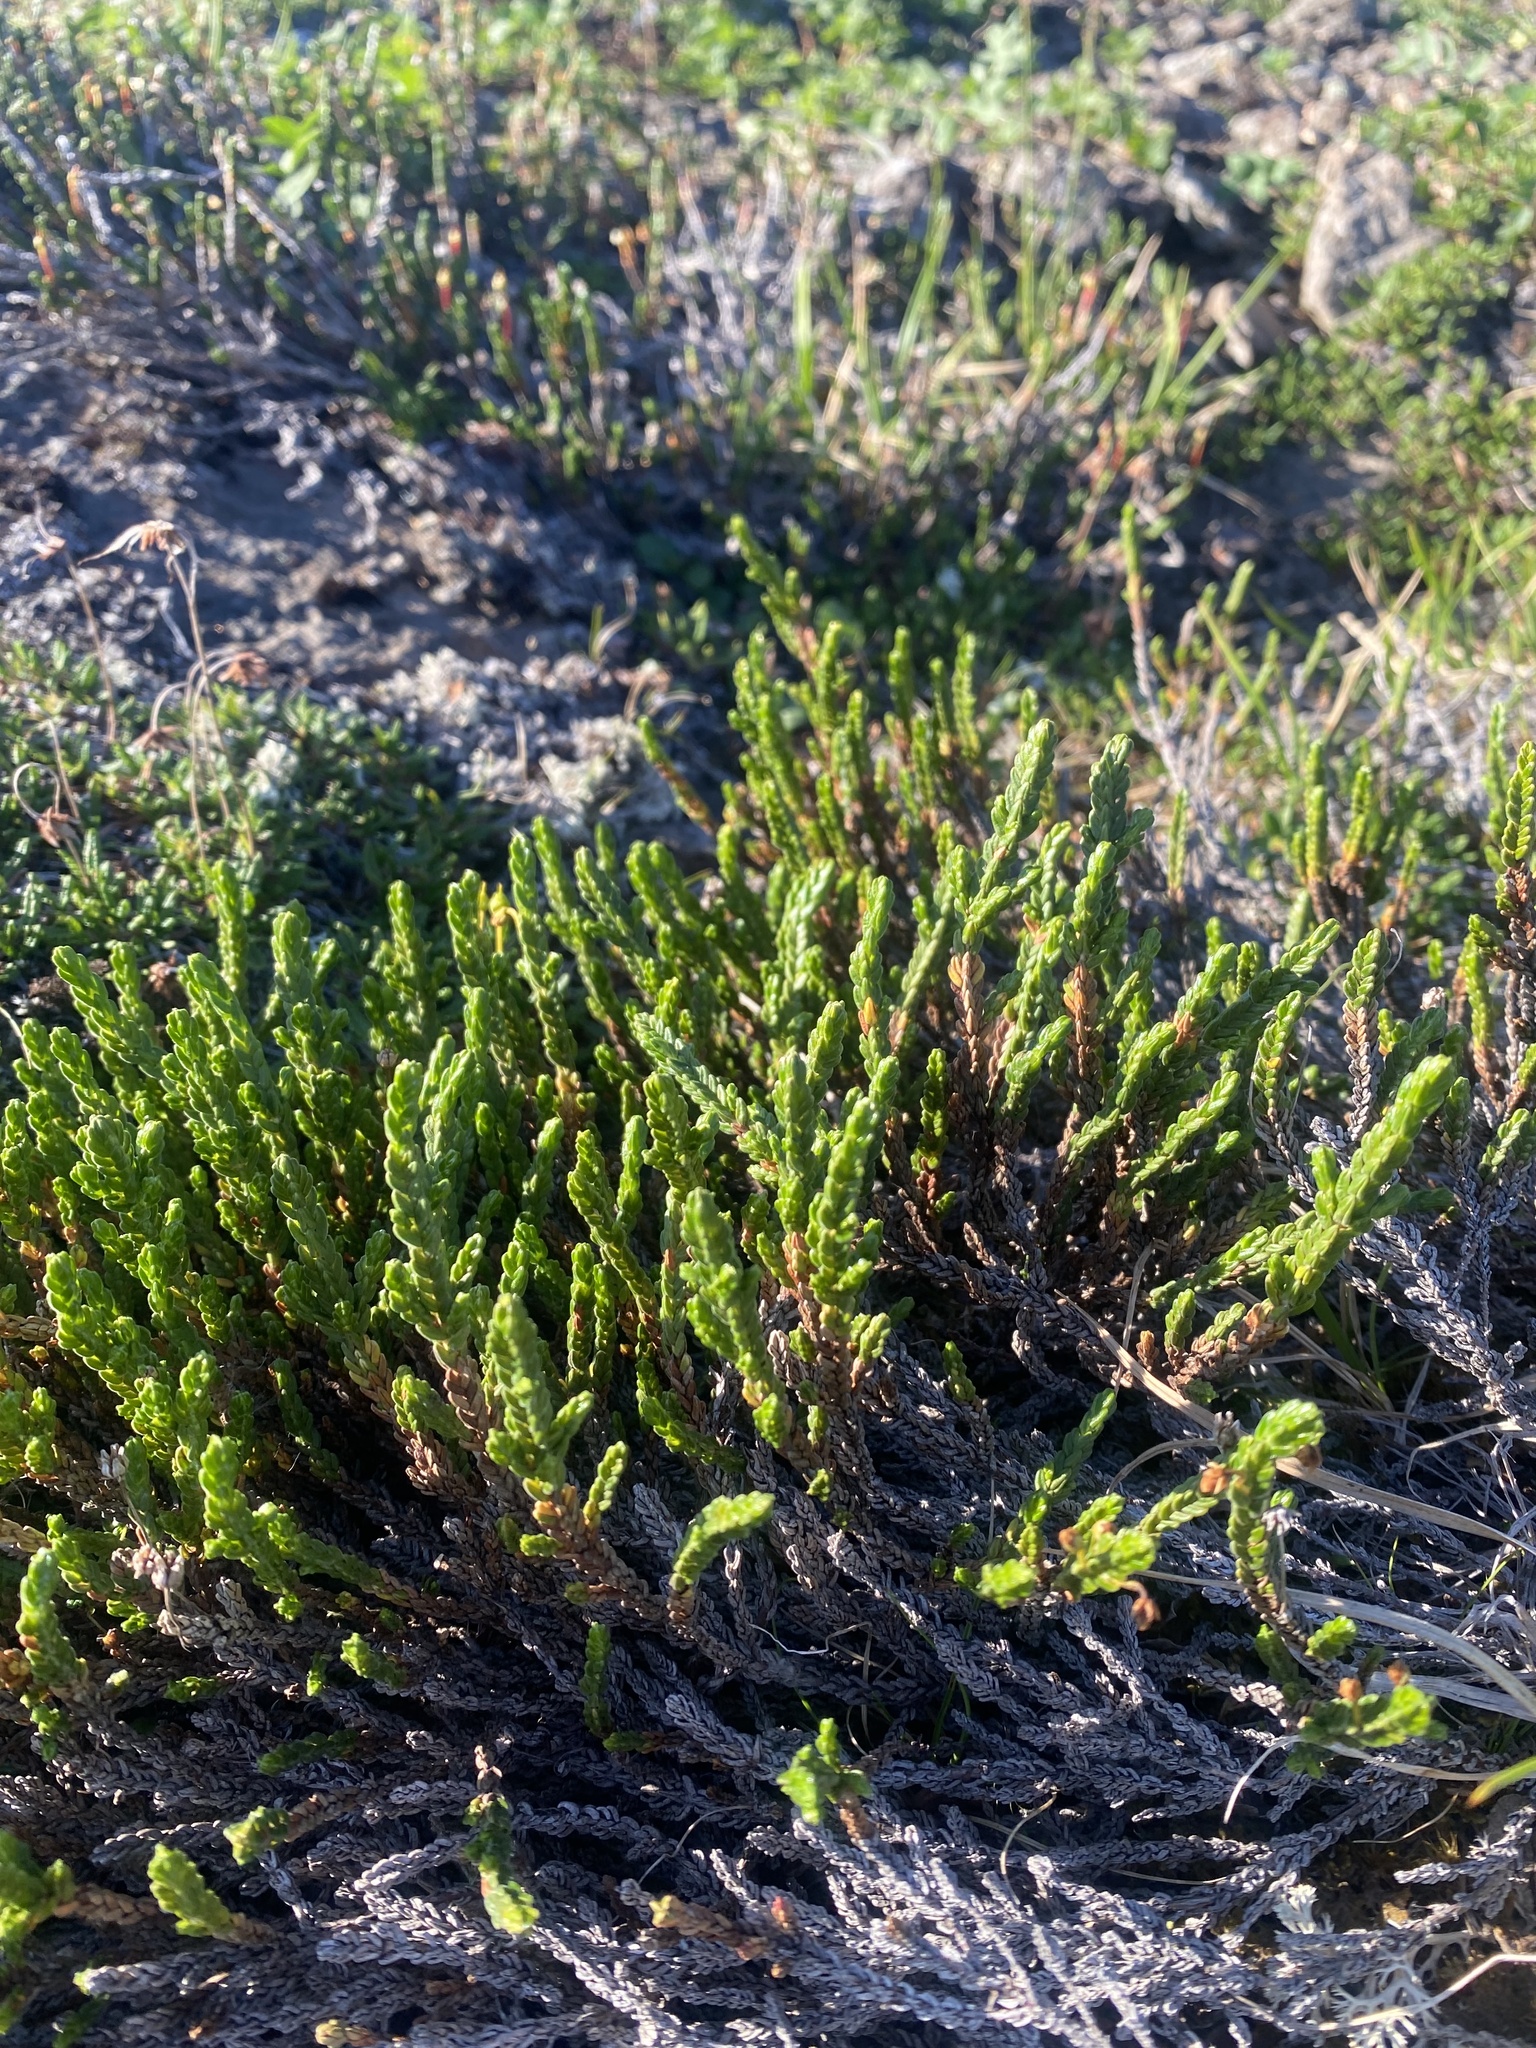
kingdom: Plantae
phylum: Tracheophyta
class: Magnoliopsida
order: Ericales
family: Ericaceae
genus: Cassiope
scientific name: Cassiope tetragona
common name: Arctic bell heather
